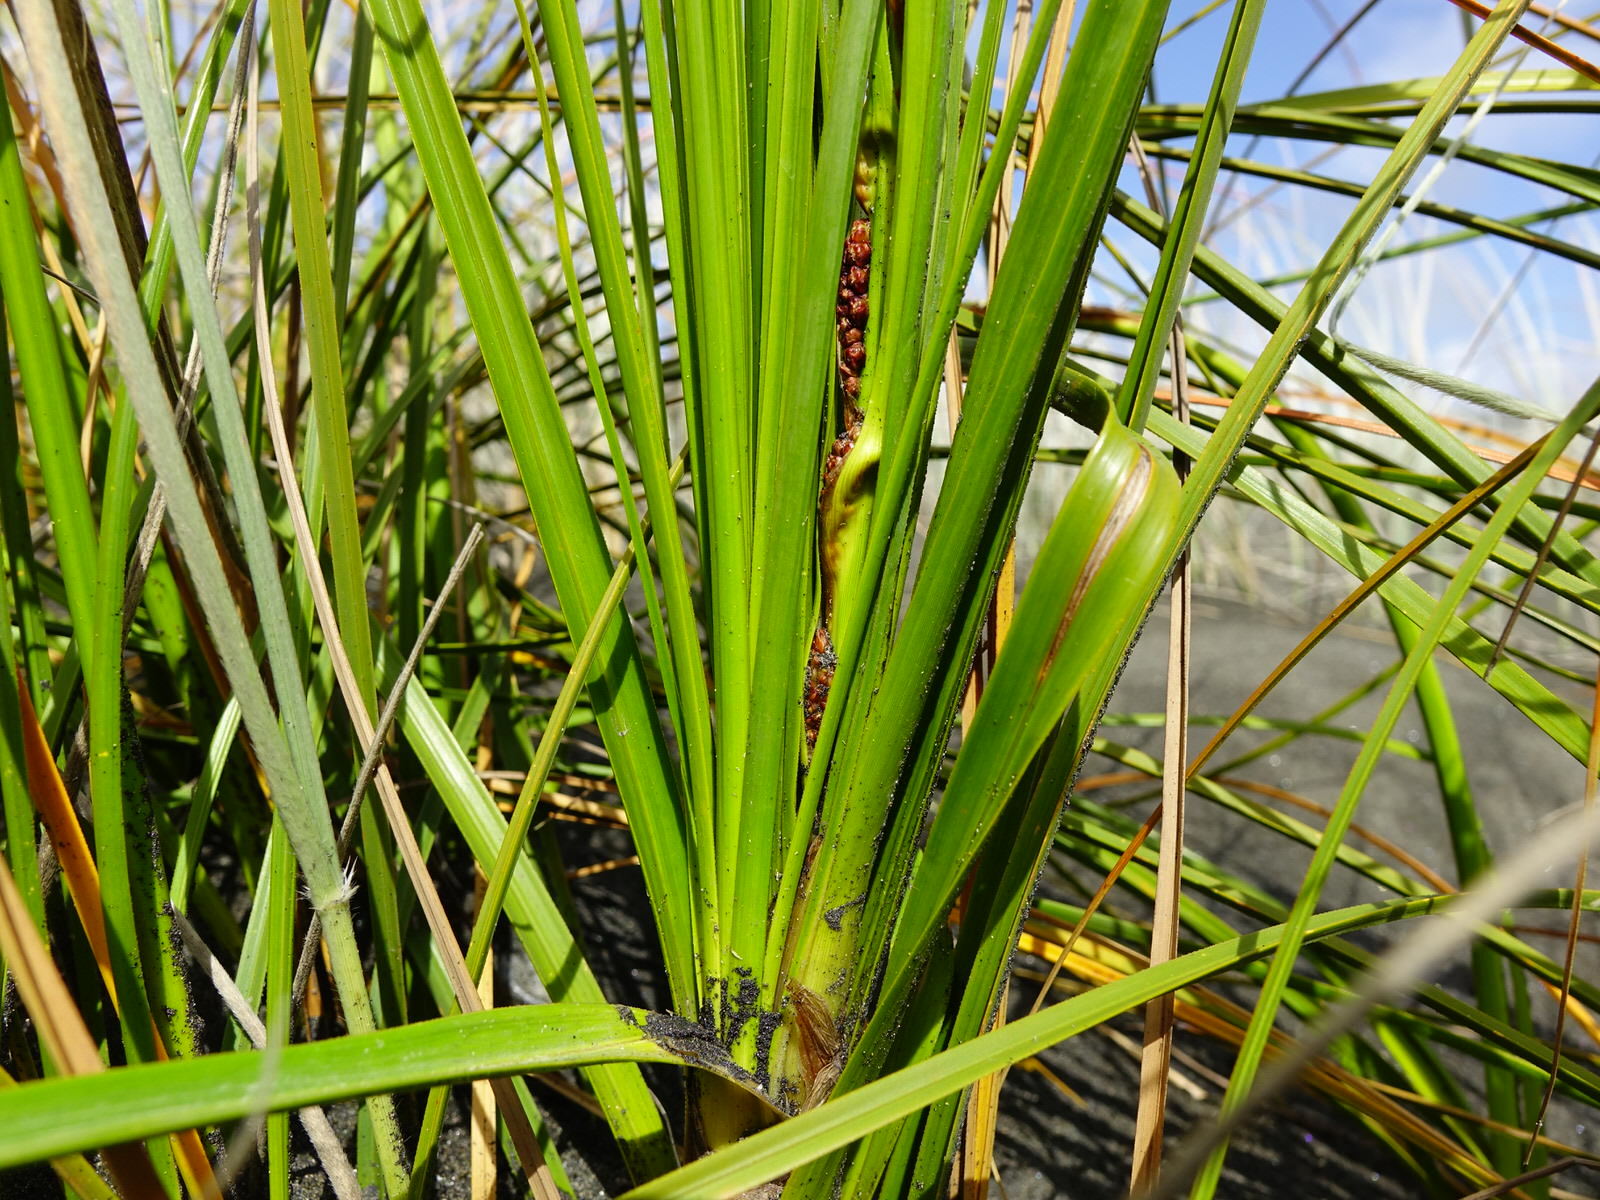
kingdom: Plantae
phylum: Tracheophyta
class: Liliopsida
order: Poales
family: Cyperaceae
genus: Ficinia
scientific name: Ficinia spiralis
